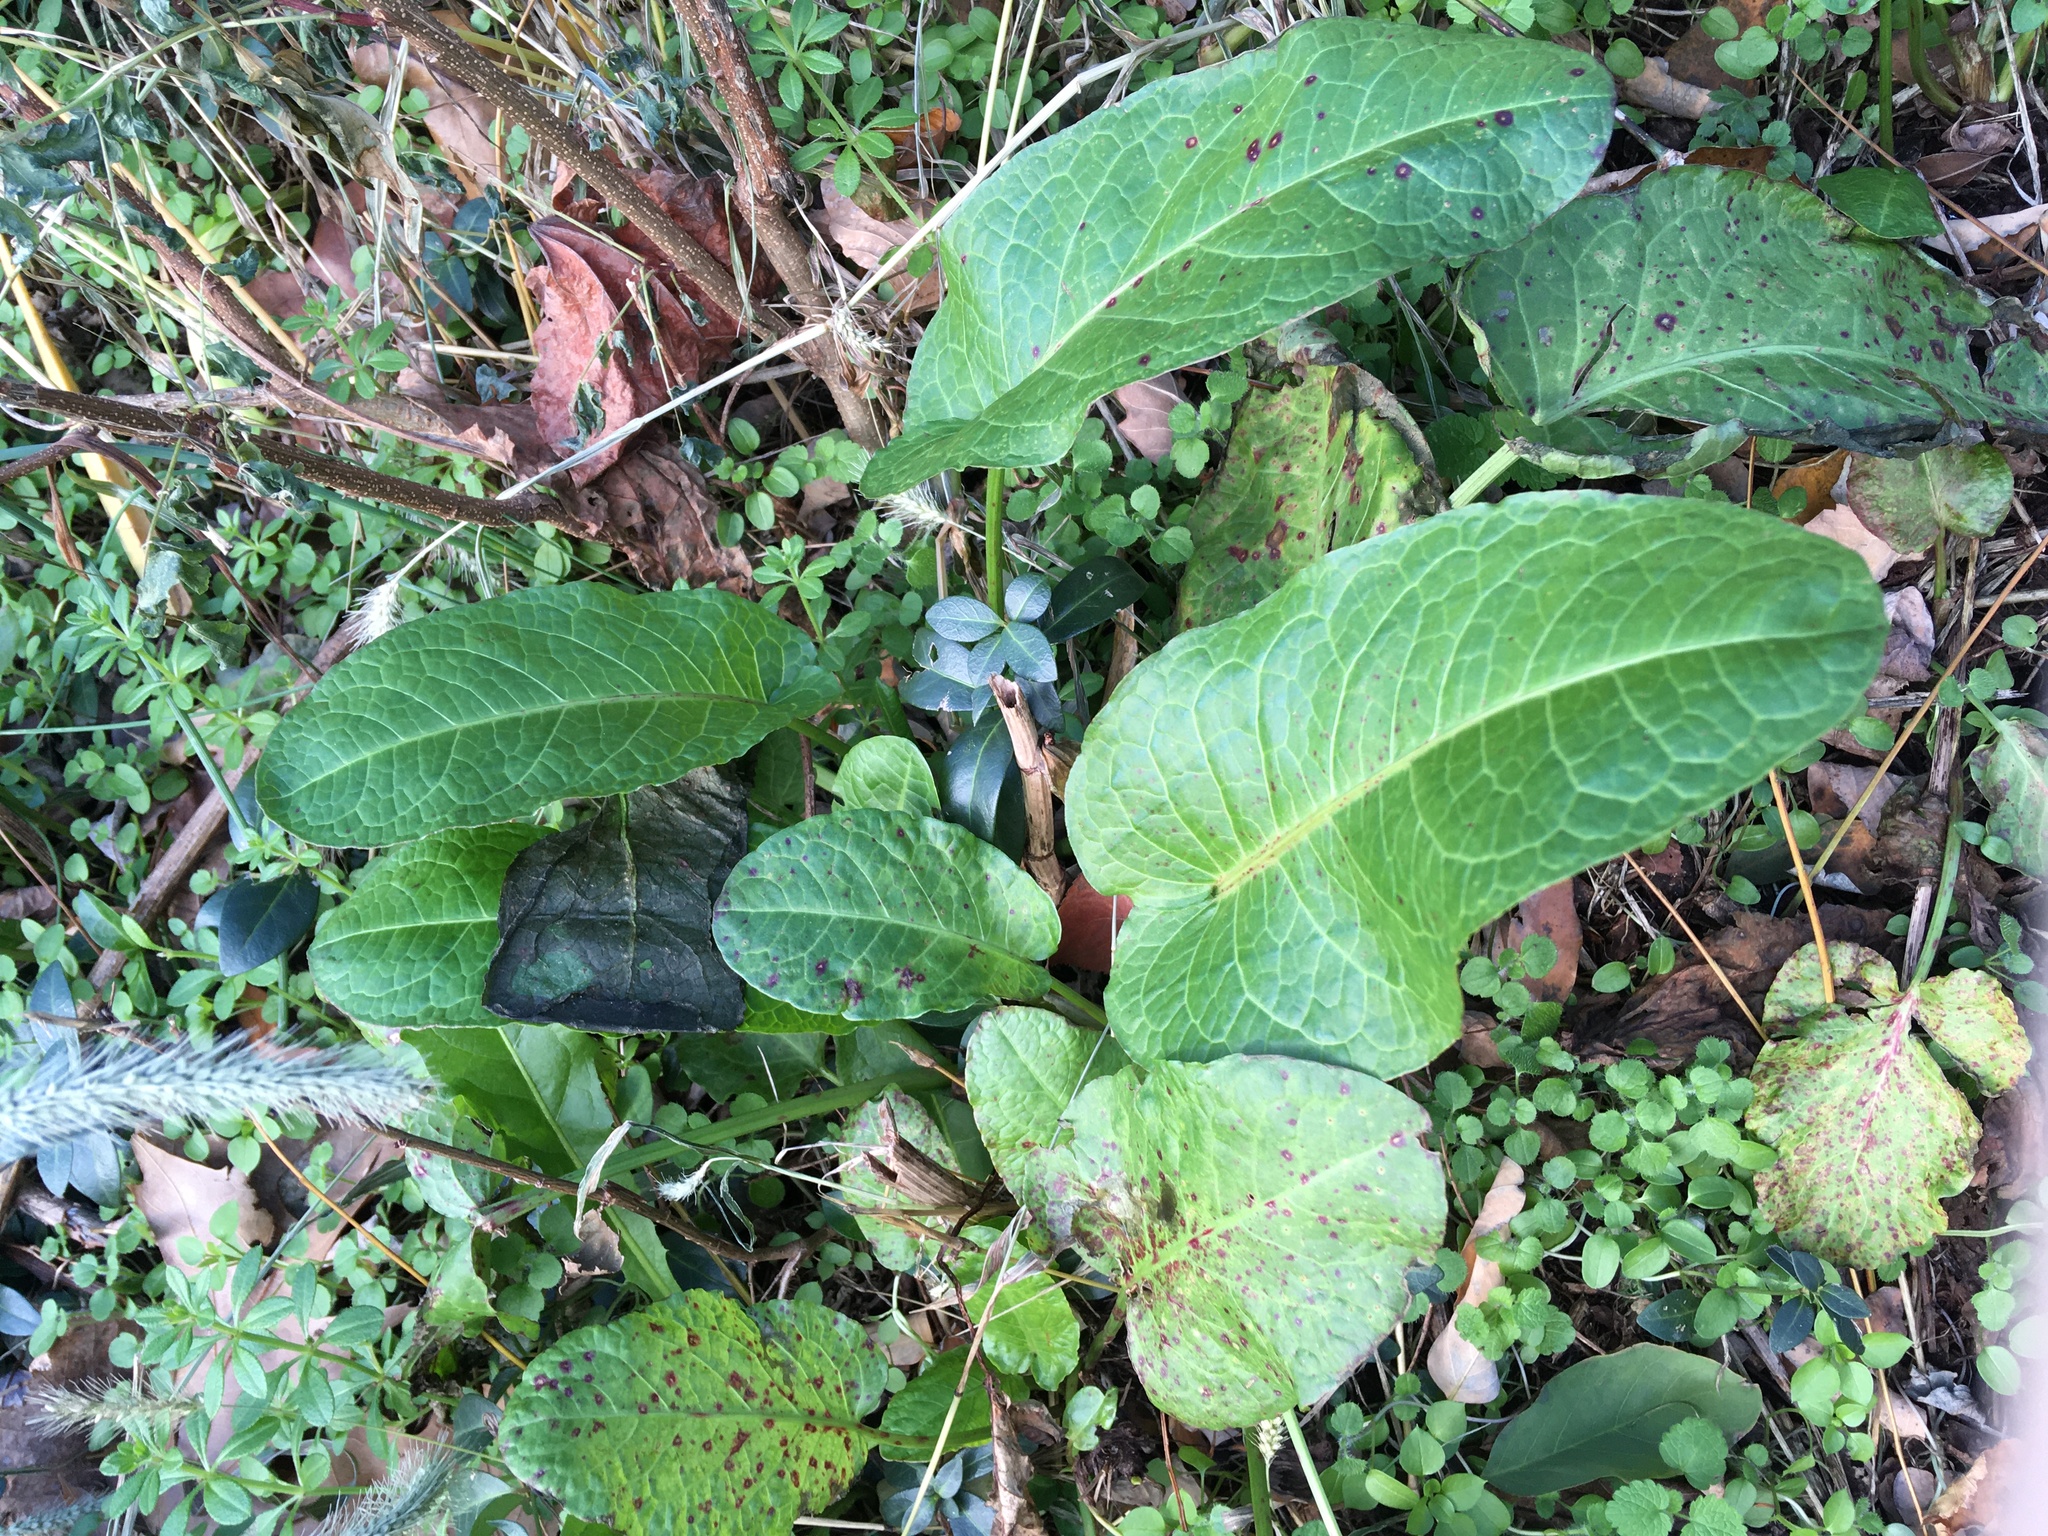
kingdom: Plantae
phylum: Tracheophyta
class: Magnoliopsida
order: Caryophyllales
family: Polygonaceae
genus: Rumex
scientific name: Rumex obtusifolius
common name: Bitter dock
